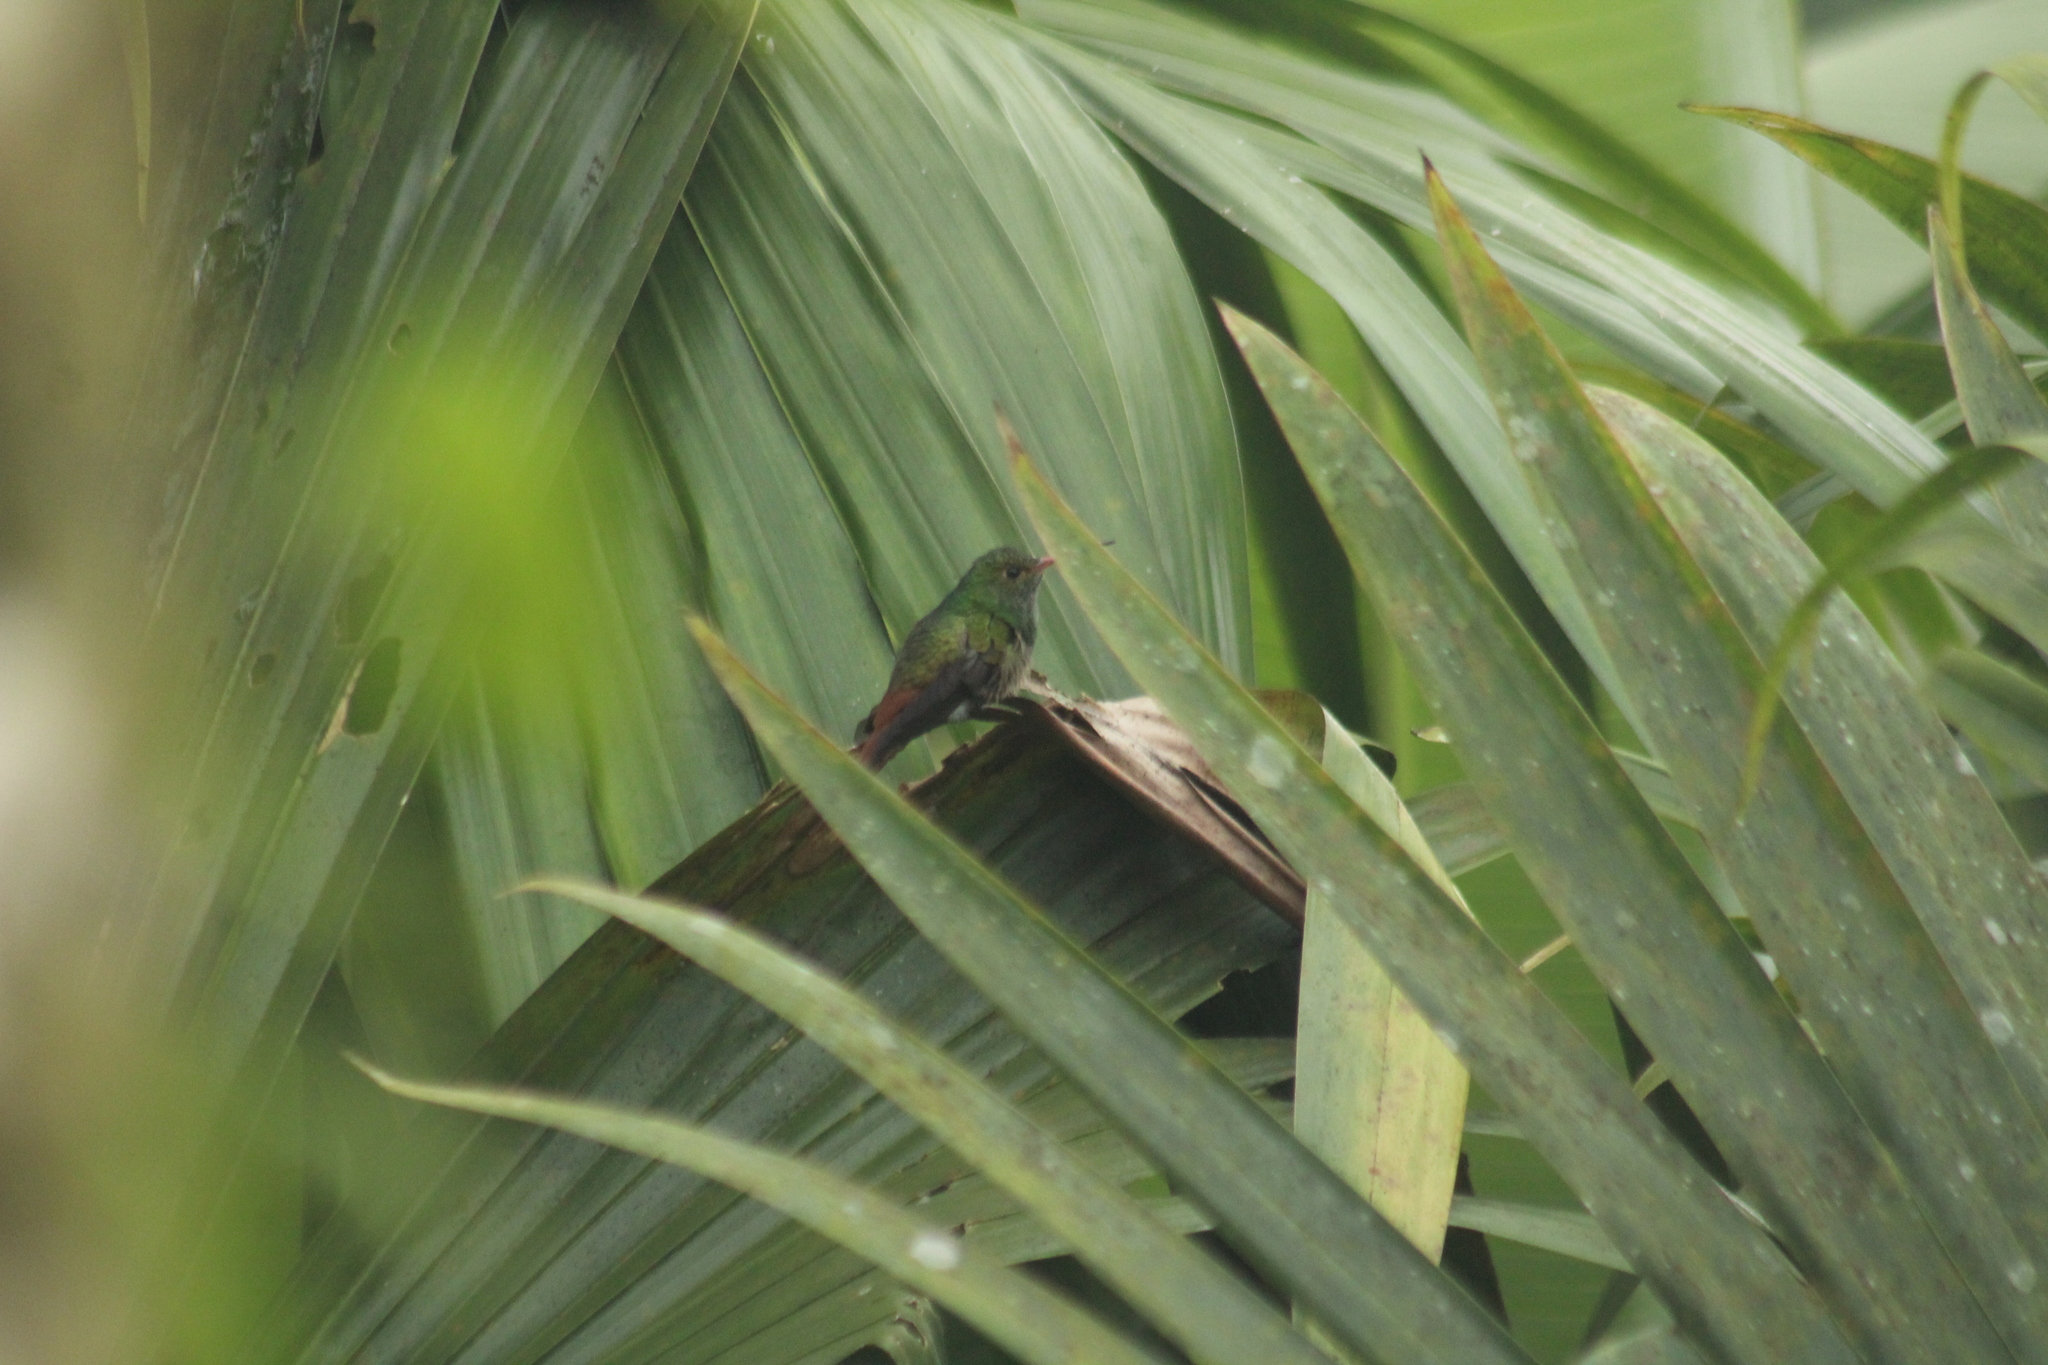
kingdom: Animalia
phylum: Chordata
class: Aves
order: Apodiformes
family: Trochilidae
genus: Amazilia
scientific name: Amazilia tzacatl
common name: Rufous-tailed hummingbird
